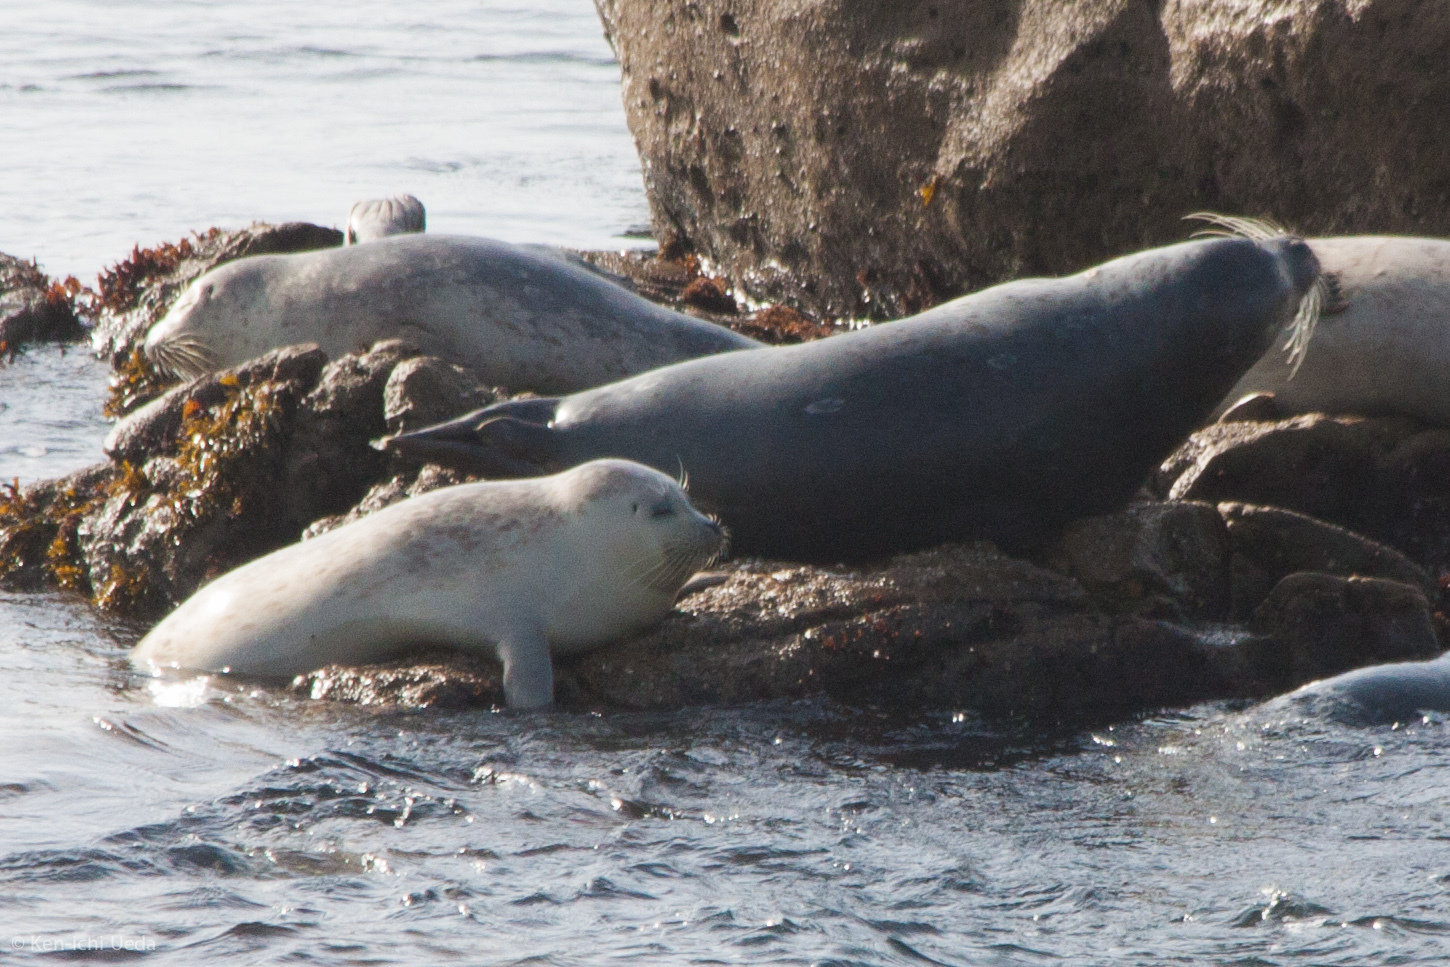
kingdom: Animalia
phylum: Chordata
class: Mammalia
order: Carnivora
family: Phocidae
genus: Phoca
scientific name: Phoca vitulina
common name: Harbor seal
